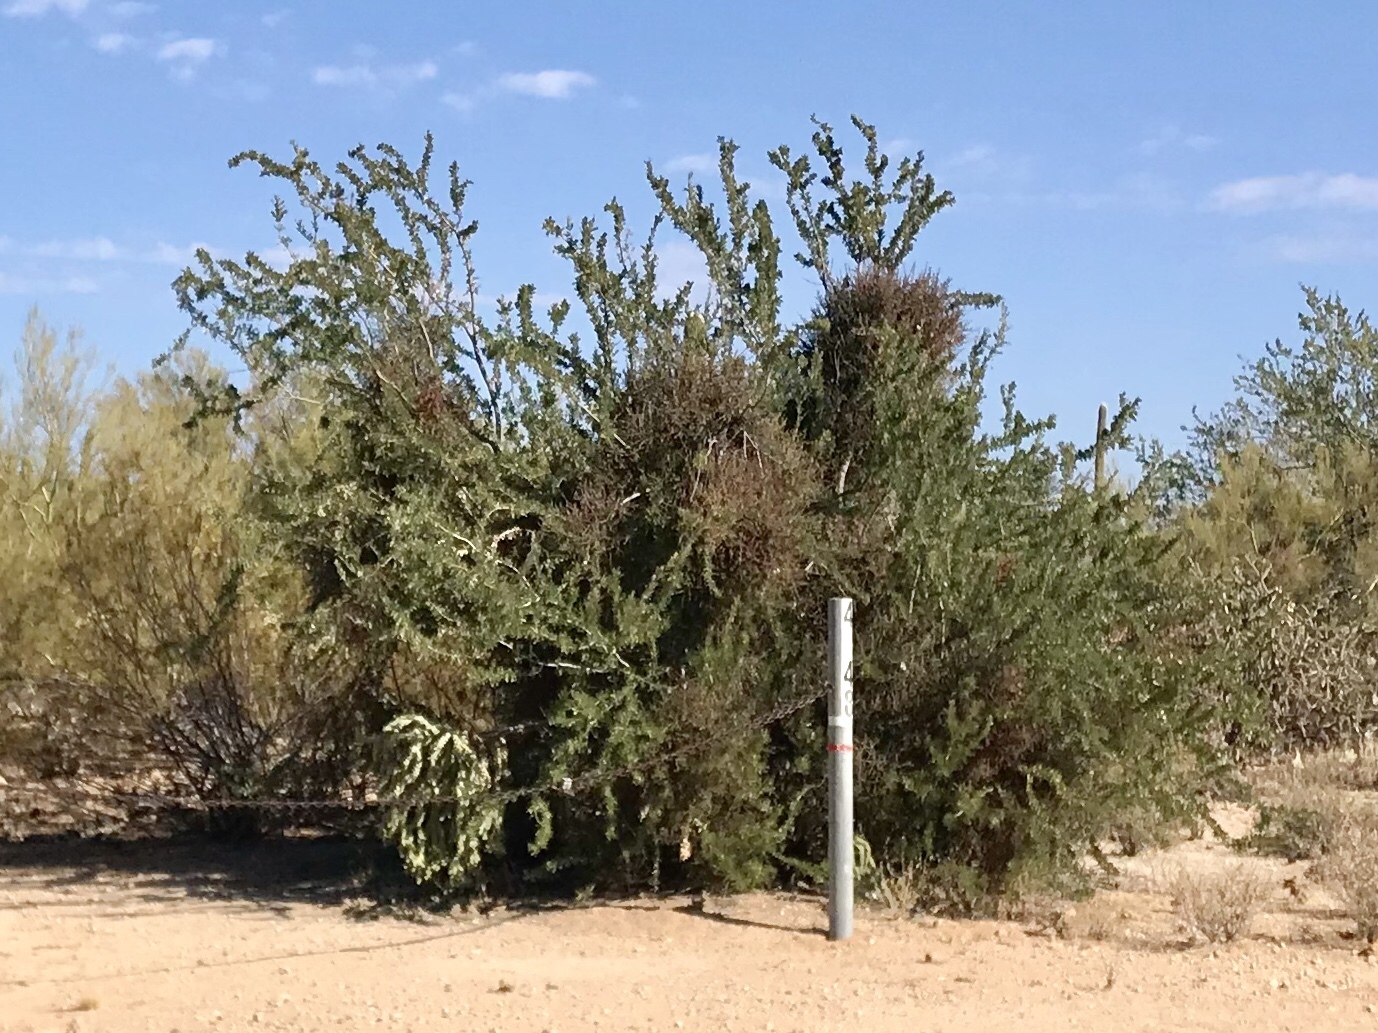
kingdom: Plantae
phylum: Tracheophyta
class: Magnoliopsida
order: Santalales
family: Viscaceae
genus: Phoradendron
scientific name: Phoradendron californicum
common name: Acacia mistletoe
